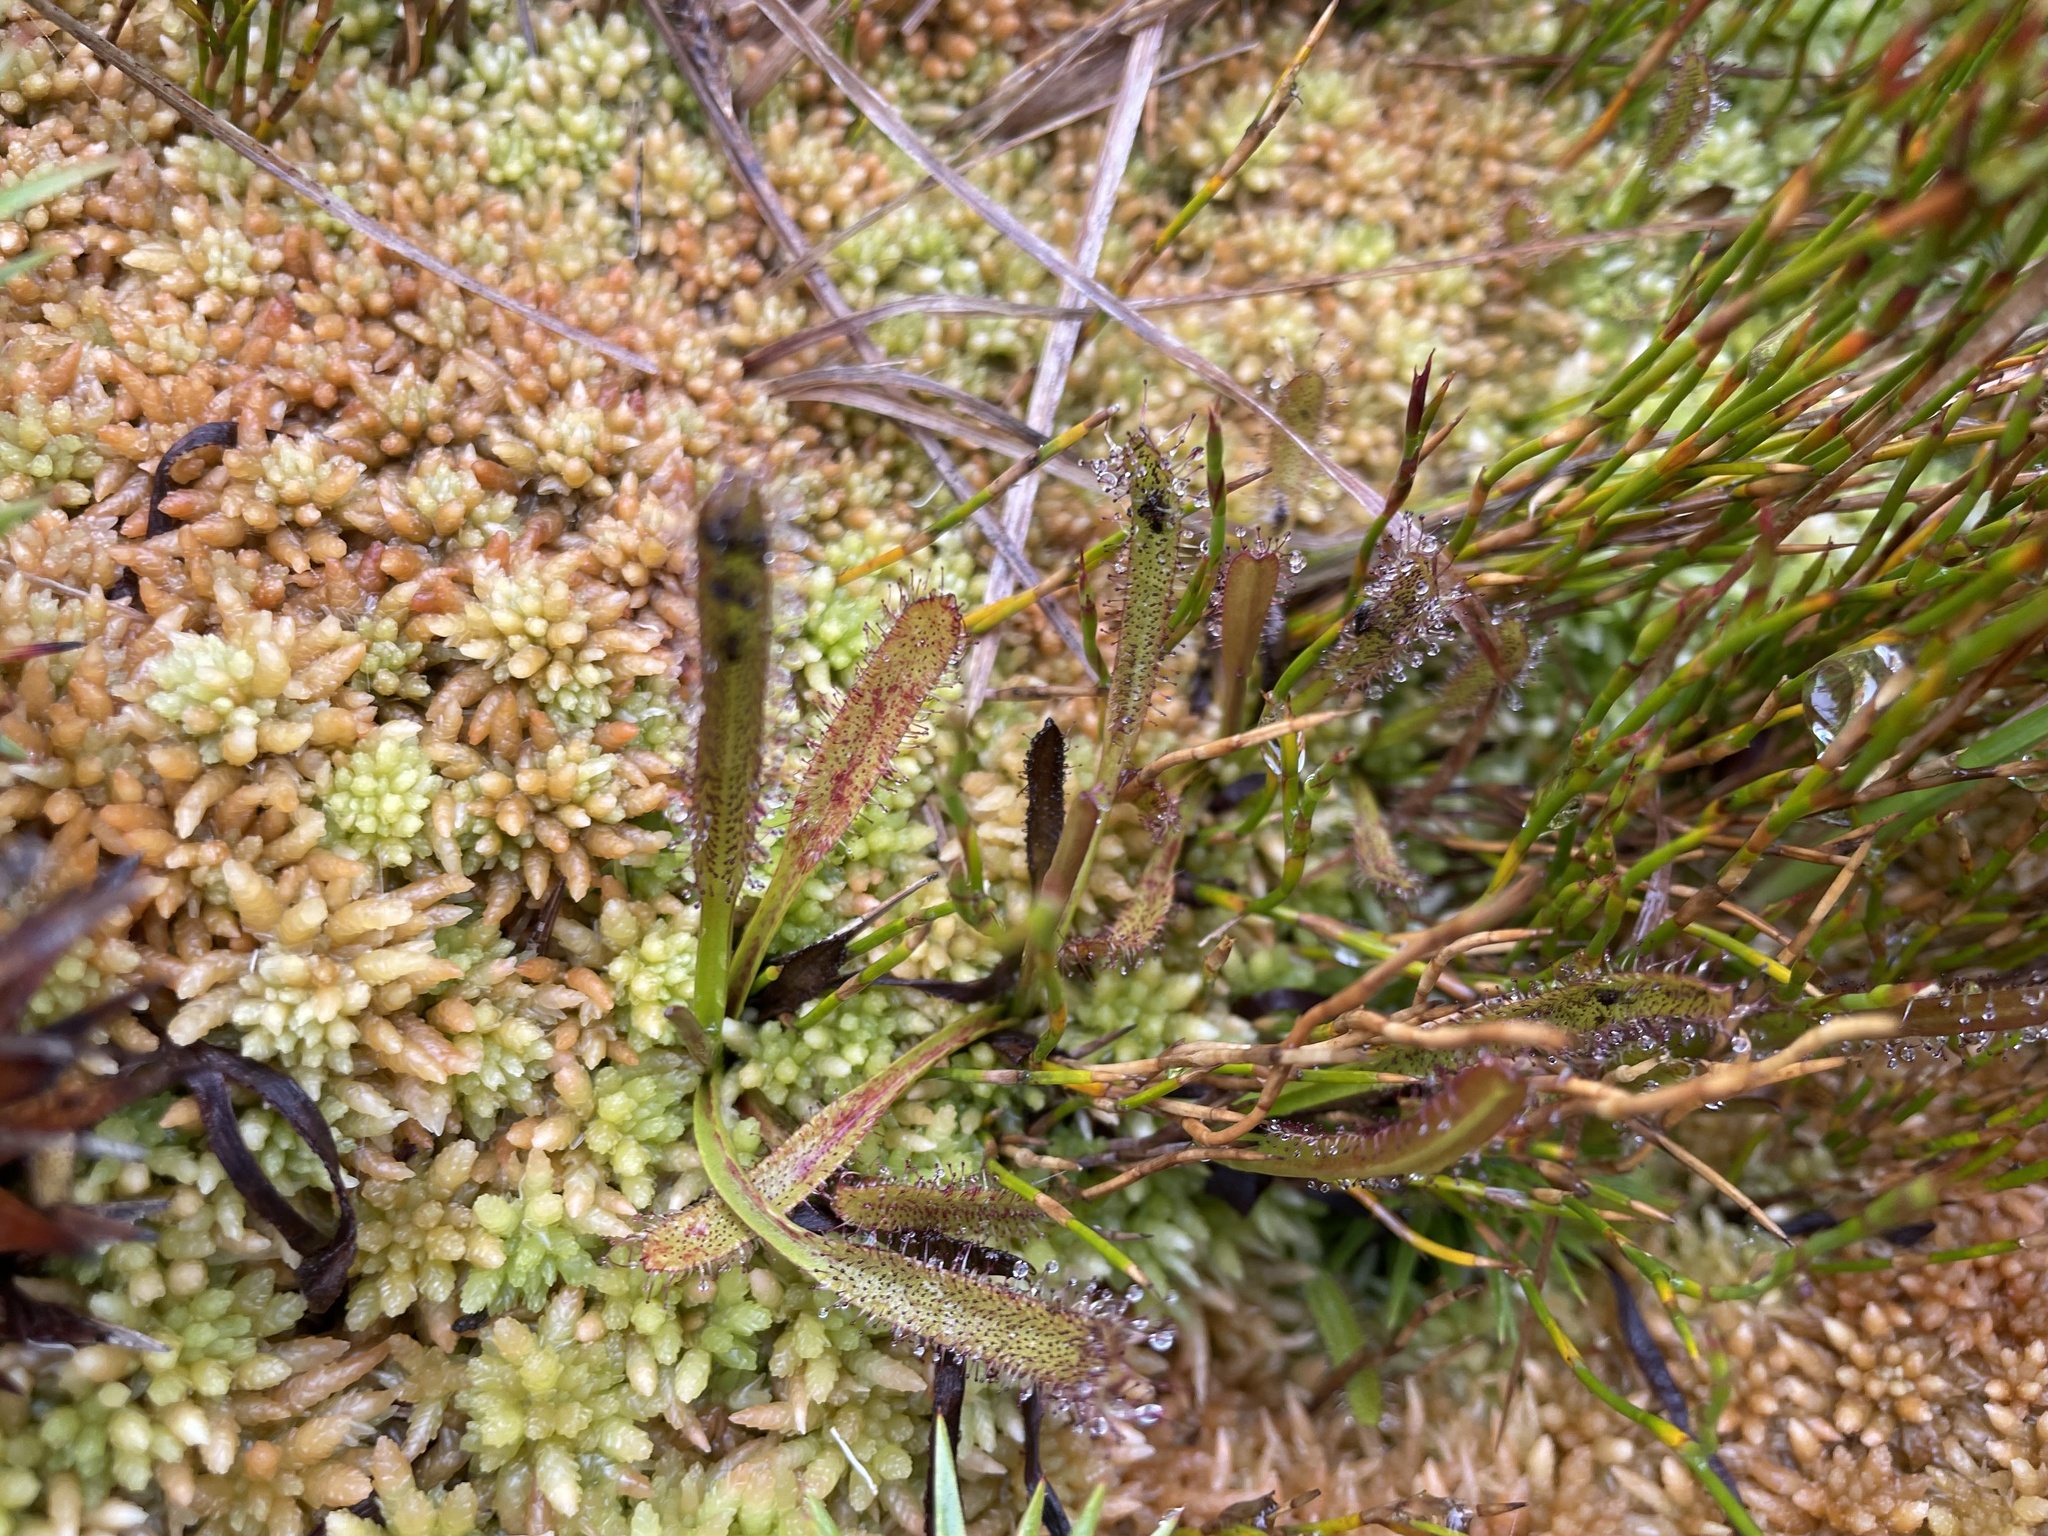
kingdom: Plantae
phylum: Tracheophyta
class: Magnoliopsida
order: Caryophyllales
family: Droseraceae
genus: Drosera
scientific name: Drosera arcturi
